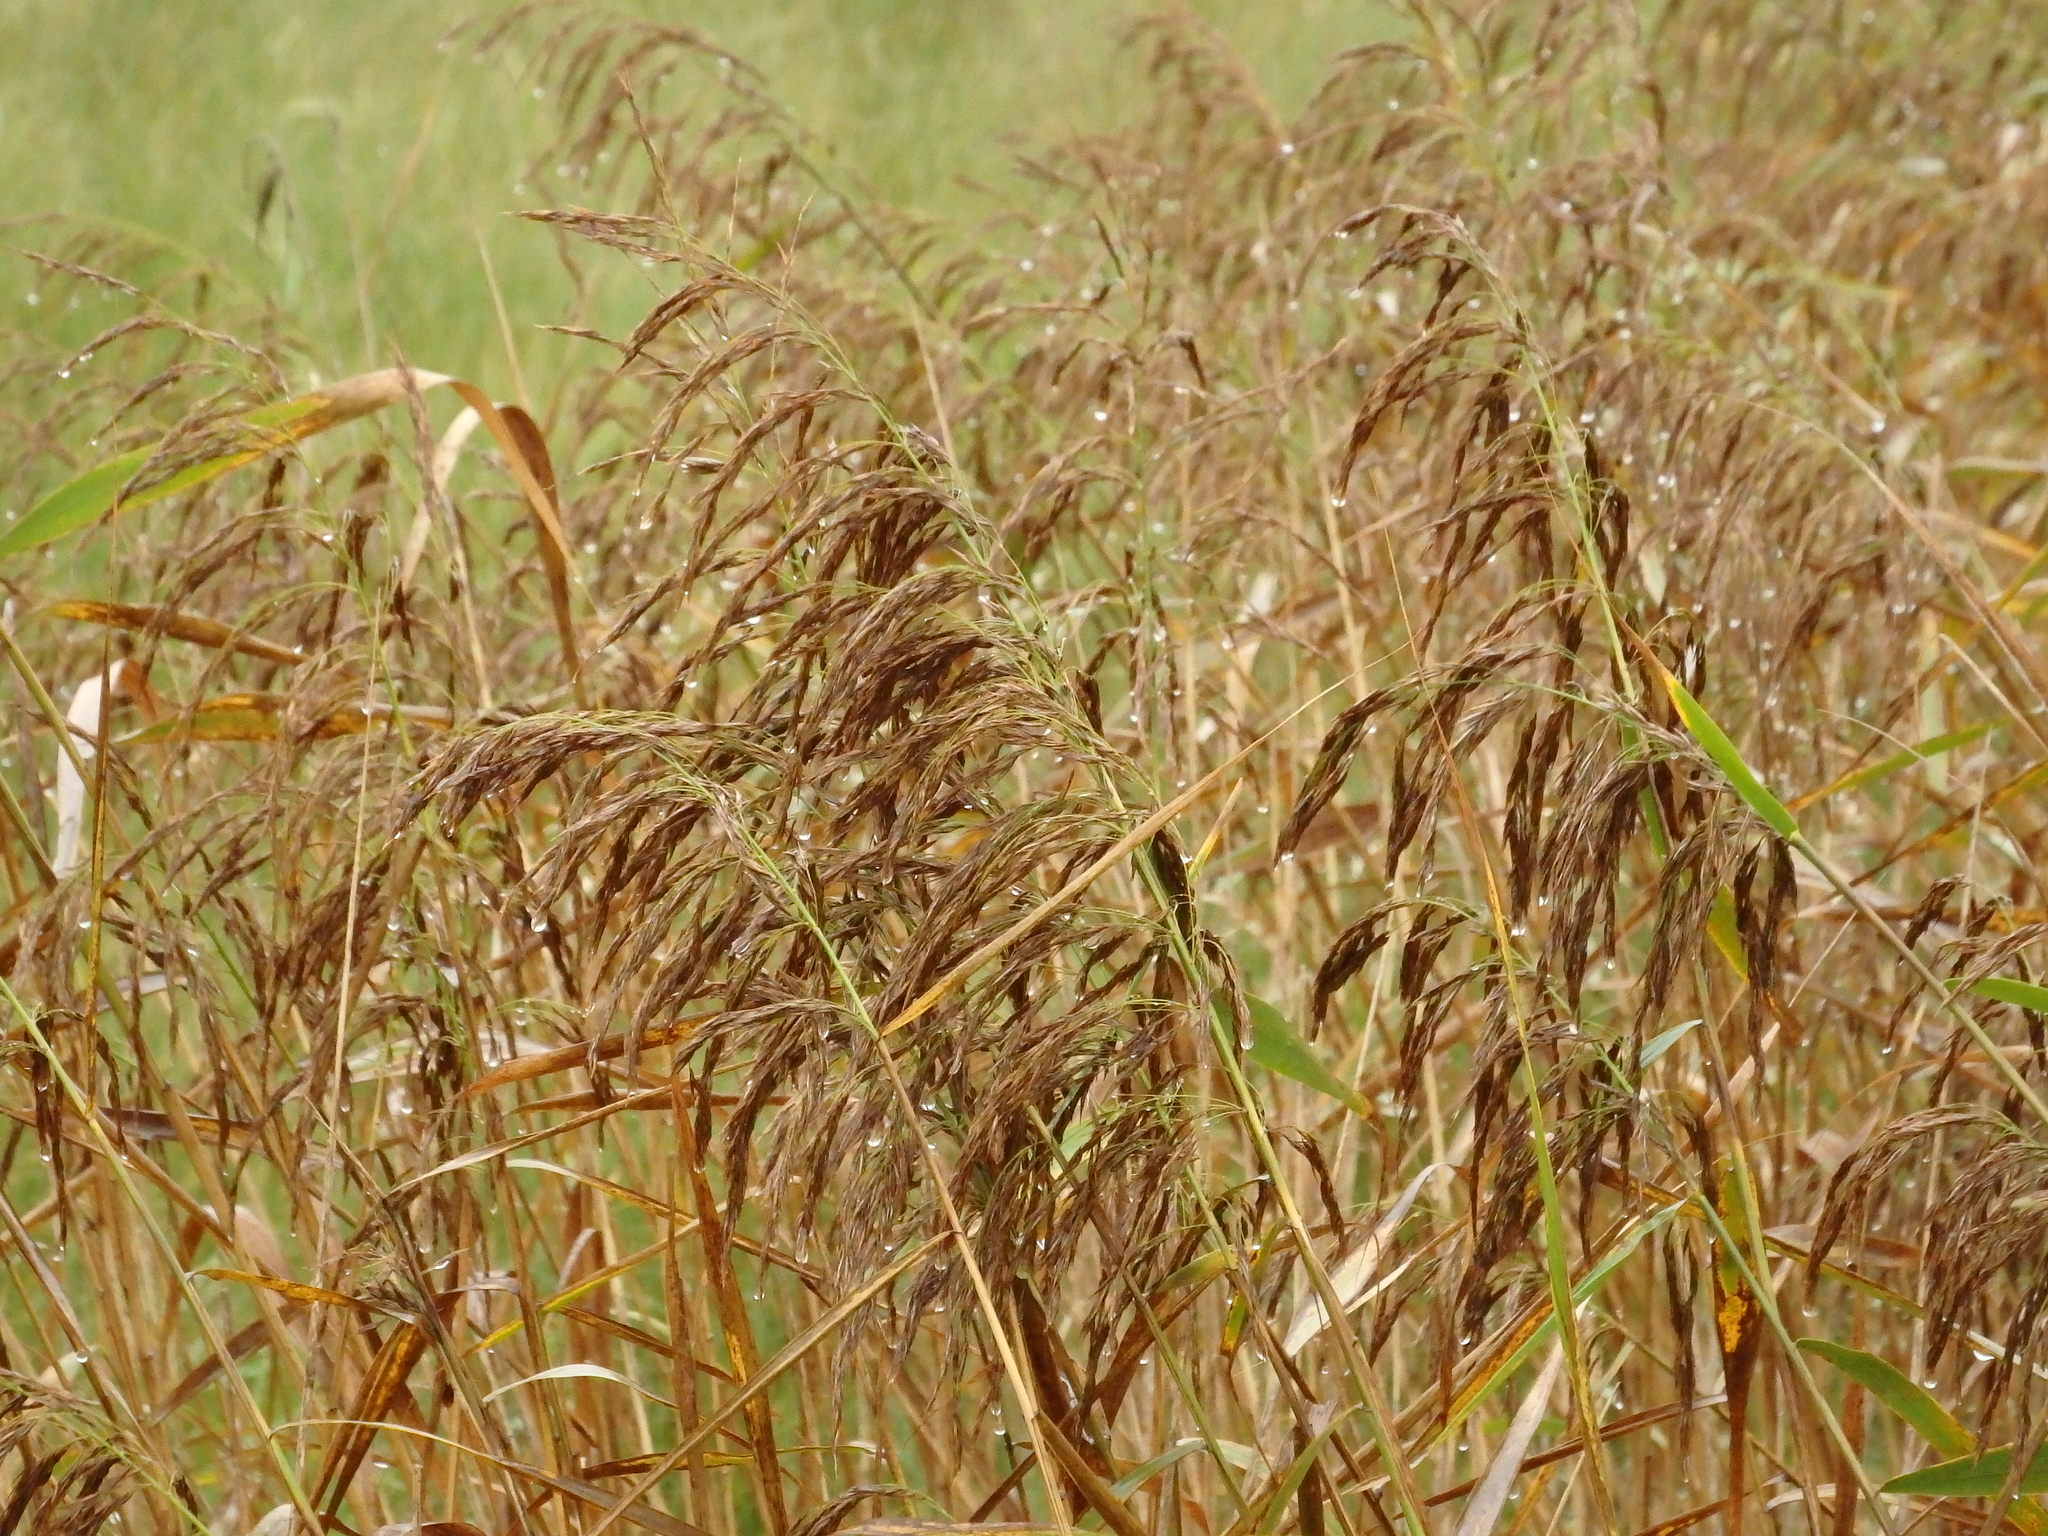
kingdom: Plantae
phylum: Tracheophyta
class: Liliopsida
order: Poales
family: Poaceae
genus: Phragmites
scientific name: Phragmites australis
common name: Common reed
